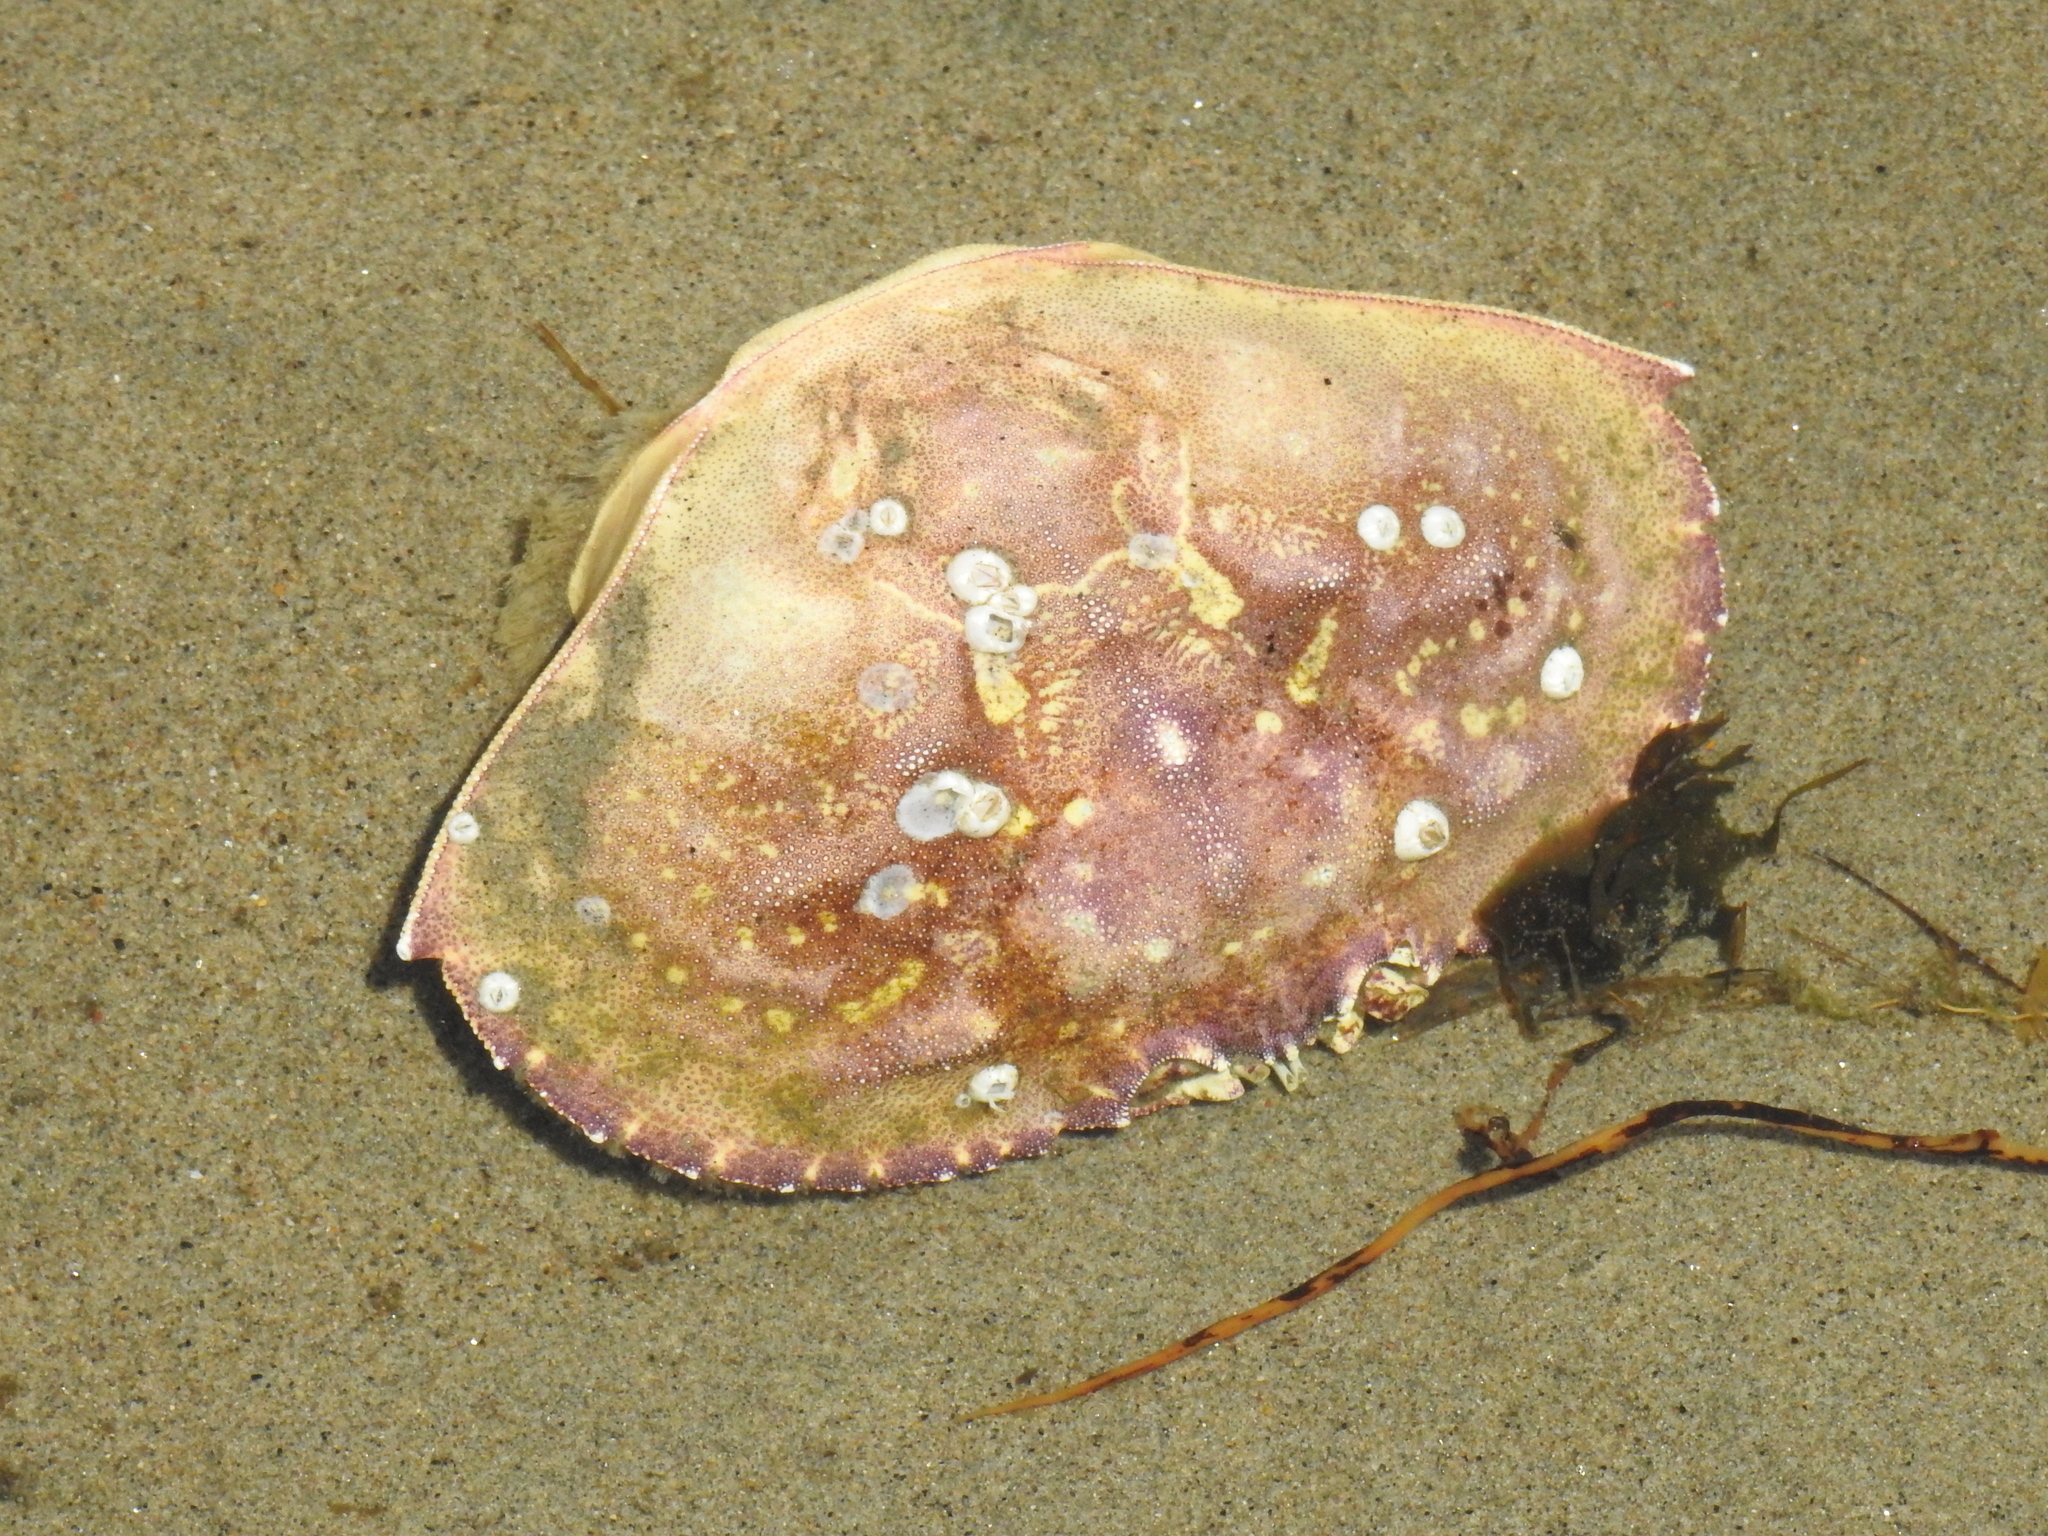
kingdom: Animalia
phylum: Arthropoda
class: Malacostraca
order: Decapoda
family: Cancridae
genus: Metacarcinus
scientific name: Metacarcinus magister
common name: Californian crab
